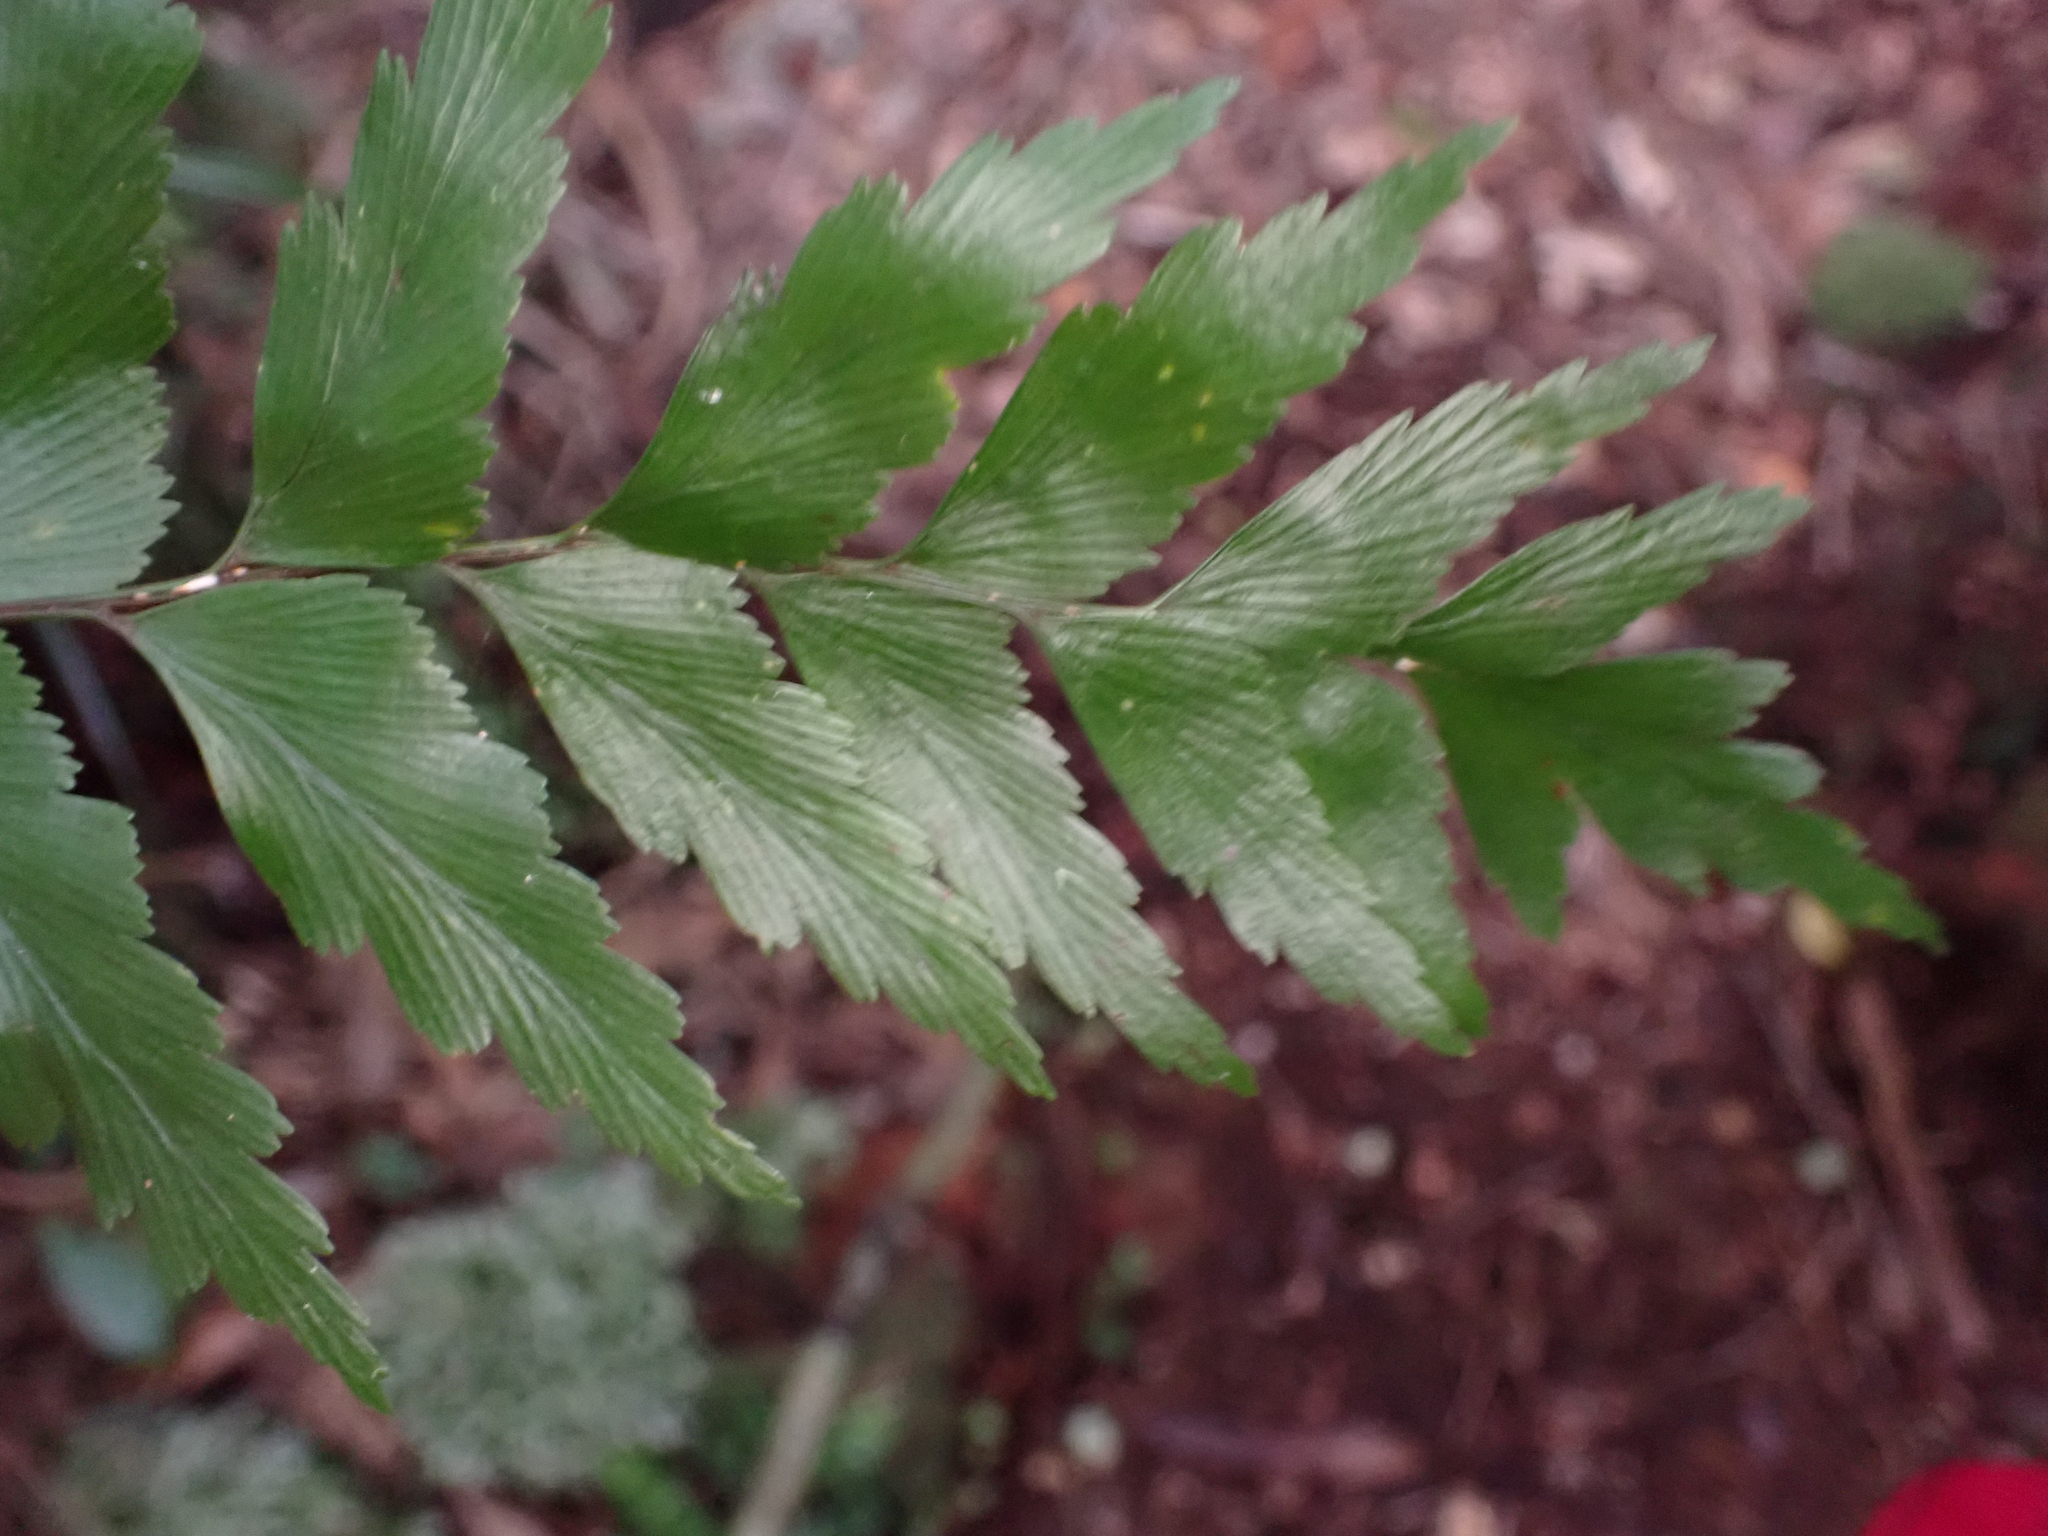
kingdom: Plantae
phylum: Tracheophyta
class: Polypodiopsida
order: Polypodiales
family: Aspleniaceae
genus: Asplenium
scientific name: Asplenium polyodon
